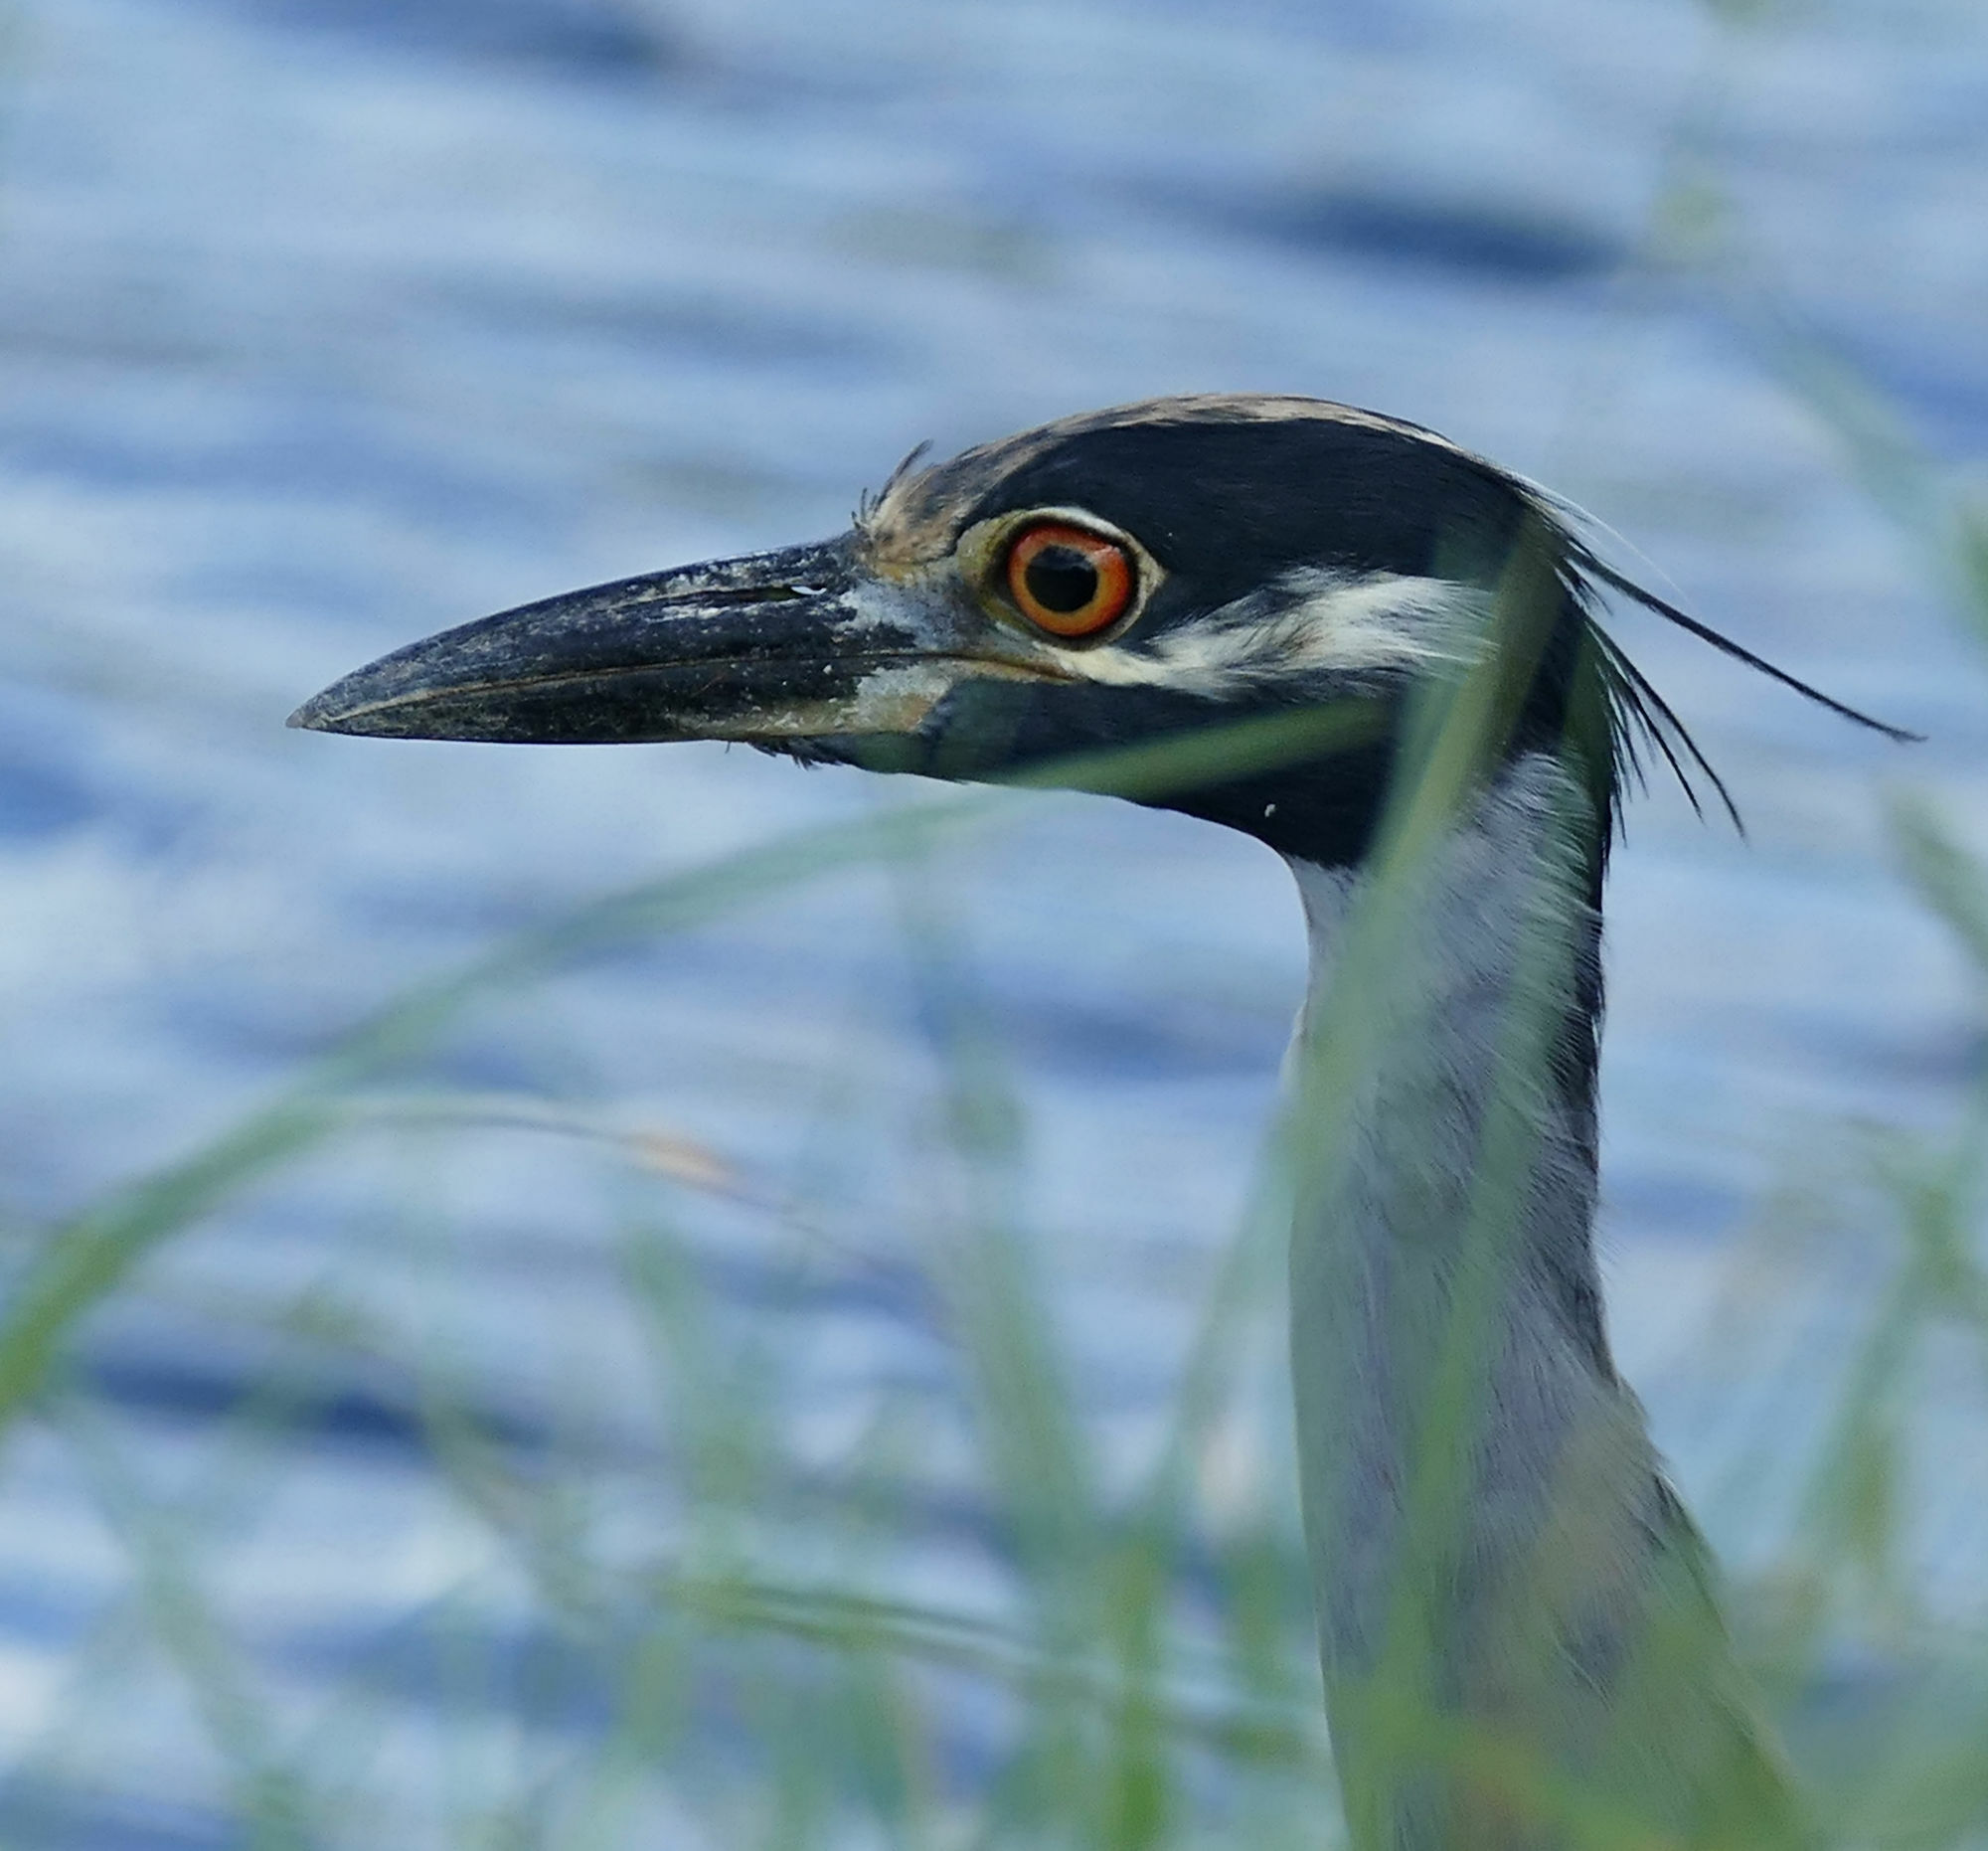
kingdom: Animalia
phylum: Chordata
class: Aves
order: Pelecaniformes
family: Ardeidae
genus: Nyctanassa
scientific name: Nyctanassa violacea
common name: Yellow-crowned night heron
